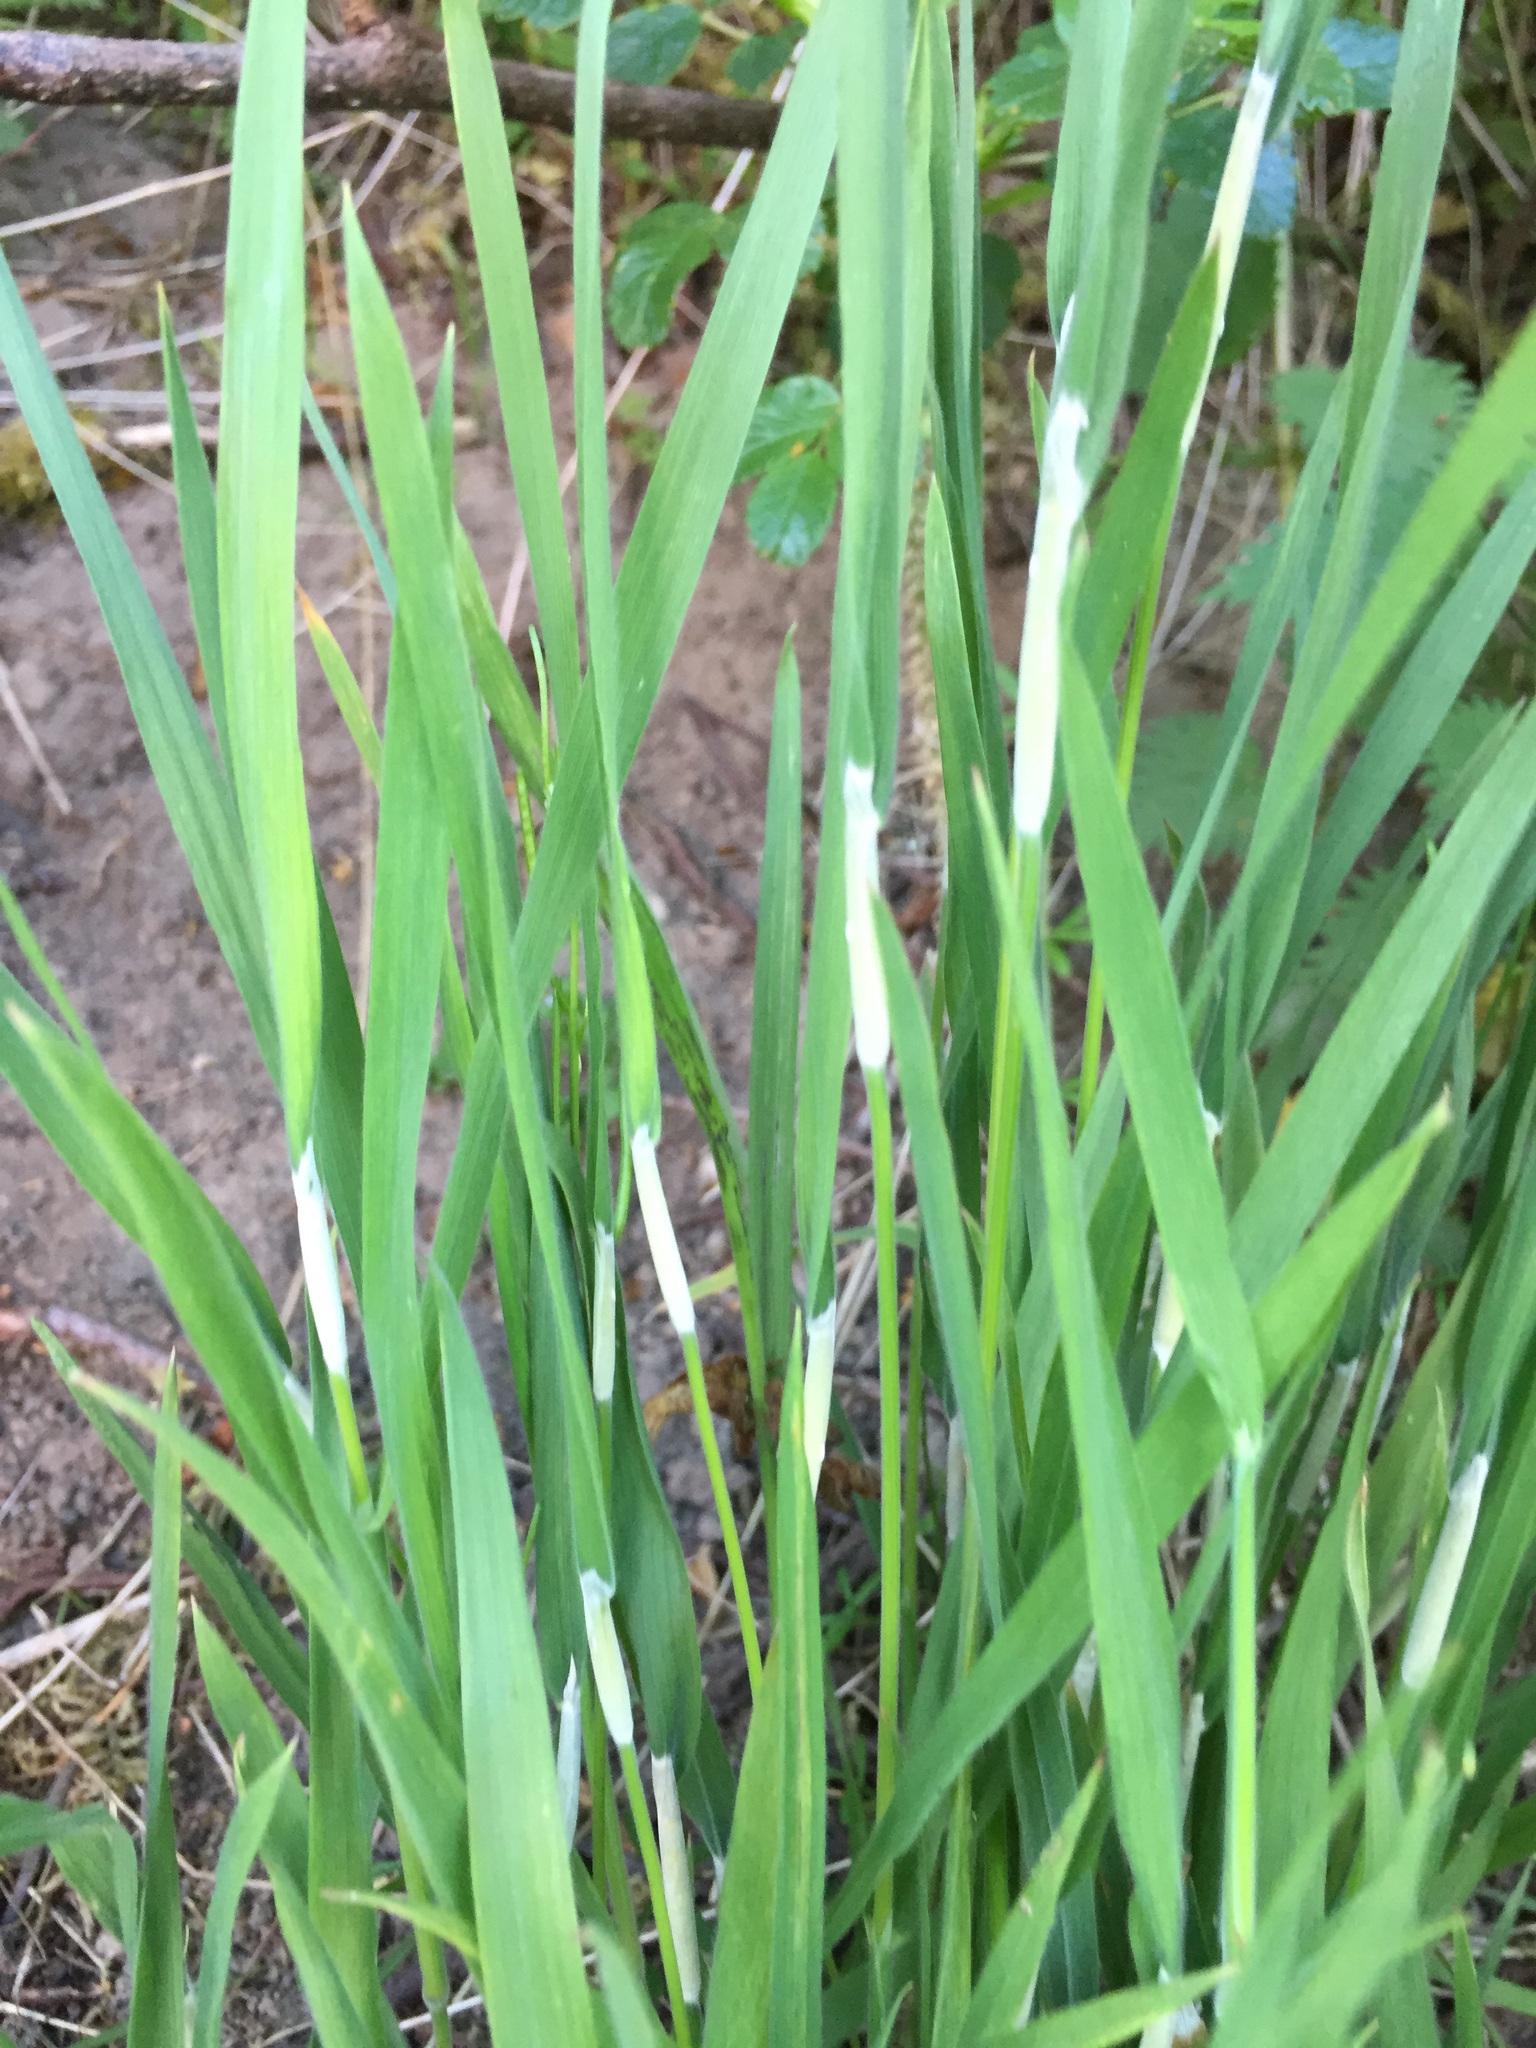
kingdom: Fungi
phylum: Ascomycota
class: Sordariomycetes
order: Hypocreales
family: Clavicipitaceae
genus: Epichloe
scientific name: Epichloe clarkii
